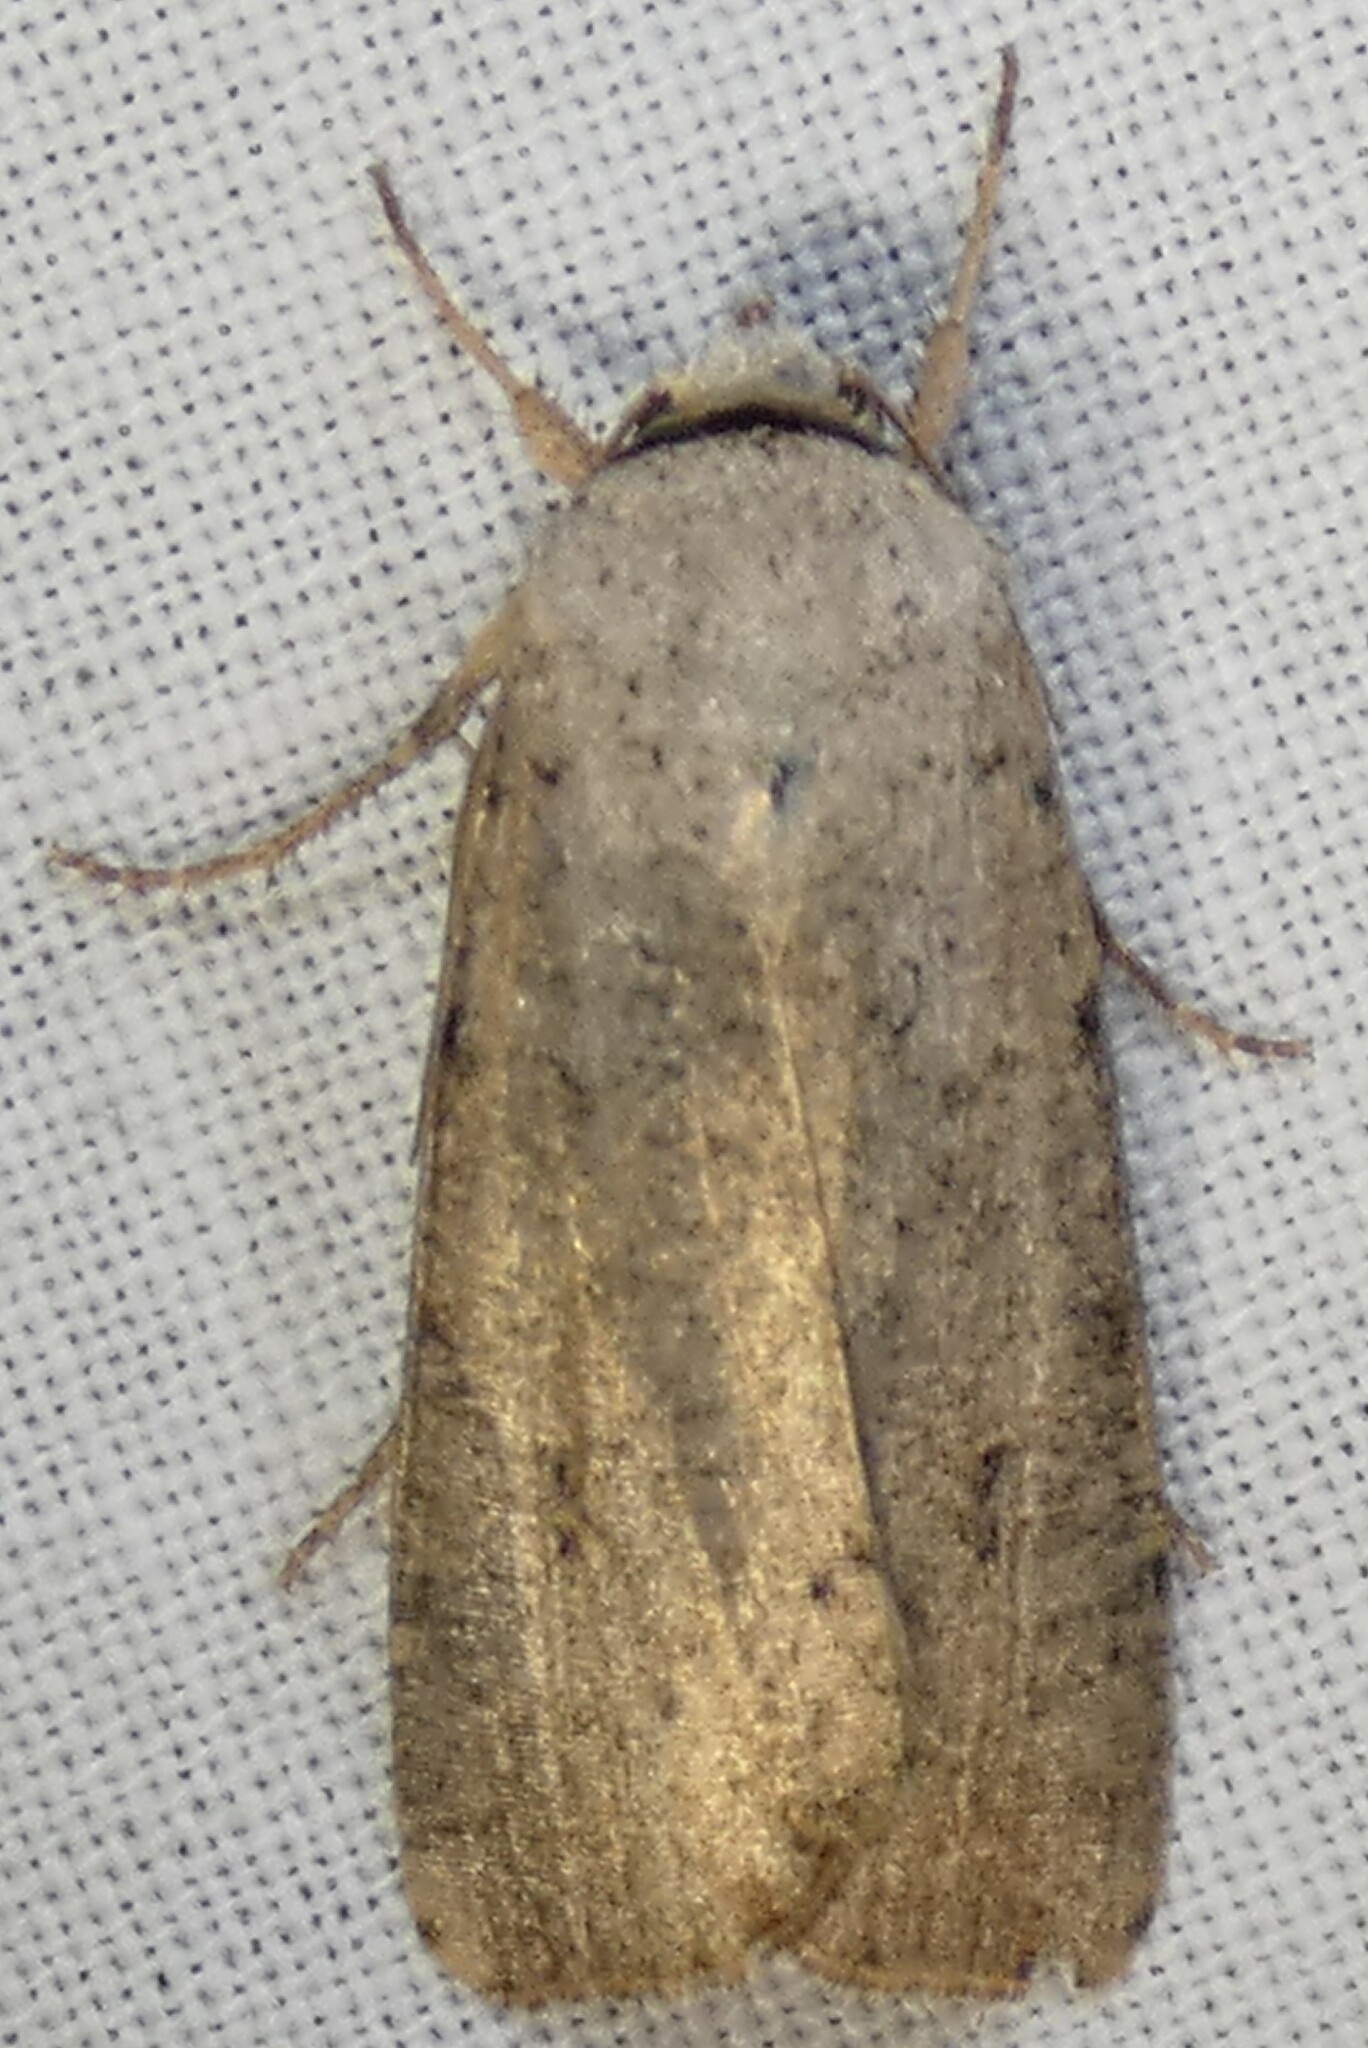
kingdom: Animalia
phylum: Arthropoda
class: Insecta
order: Lepidoptera
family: Noctuidae
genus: Anicla
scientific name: Anicla infecta
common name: Green cutworm
